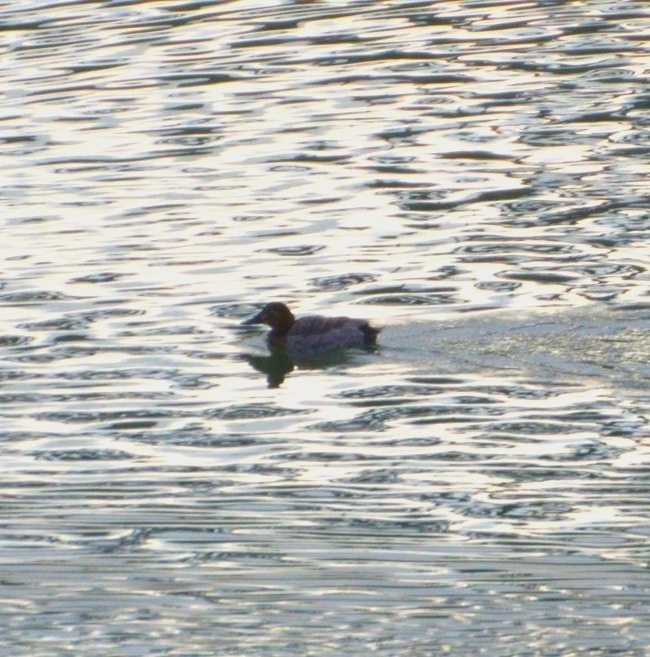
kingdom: Animalia
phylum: Chordata
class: Aves
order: Anseriformes
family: Anatidae
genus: Aythya
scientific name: Aythya ferina
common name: Common pochard
